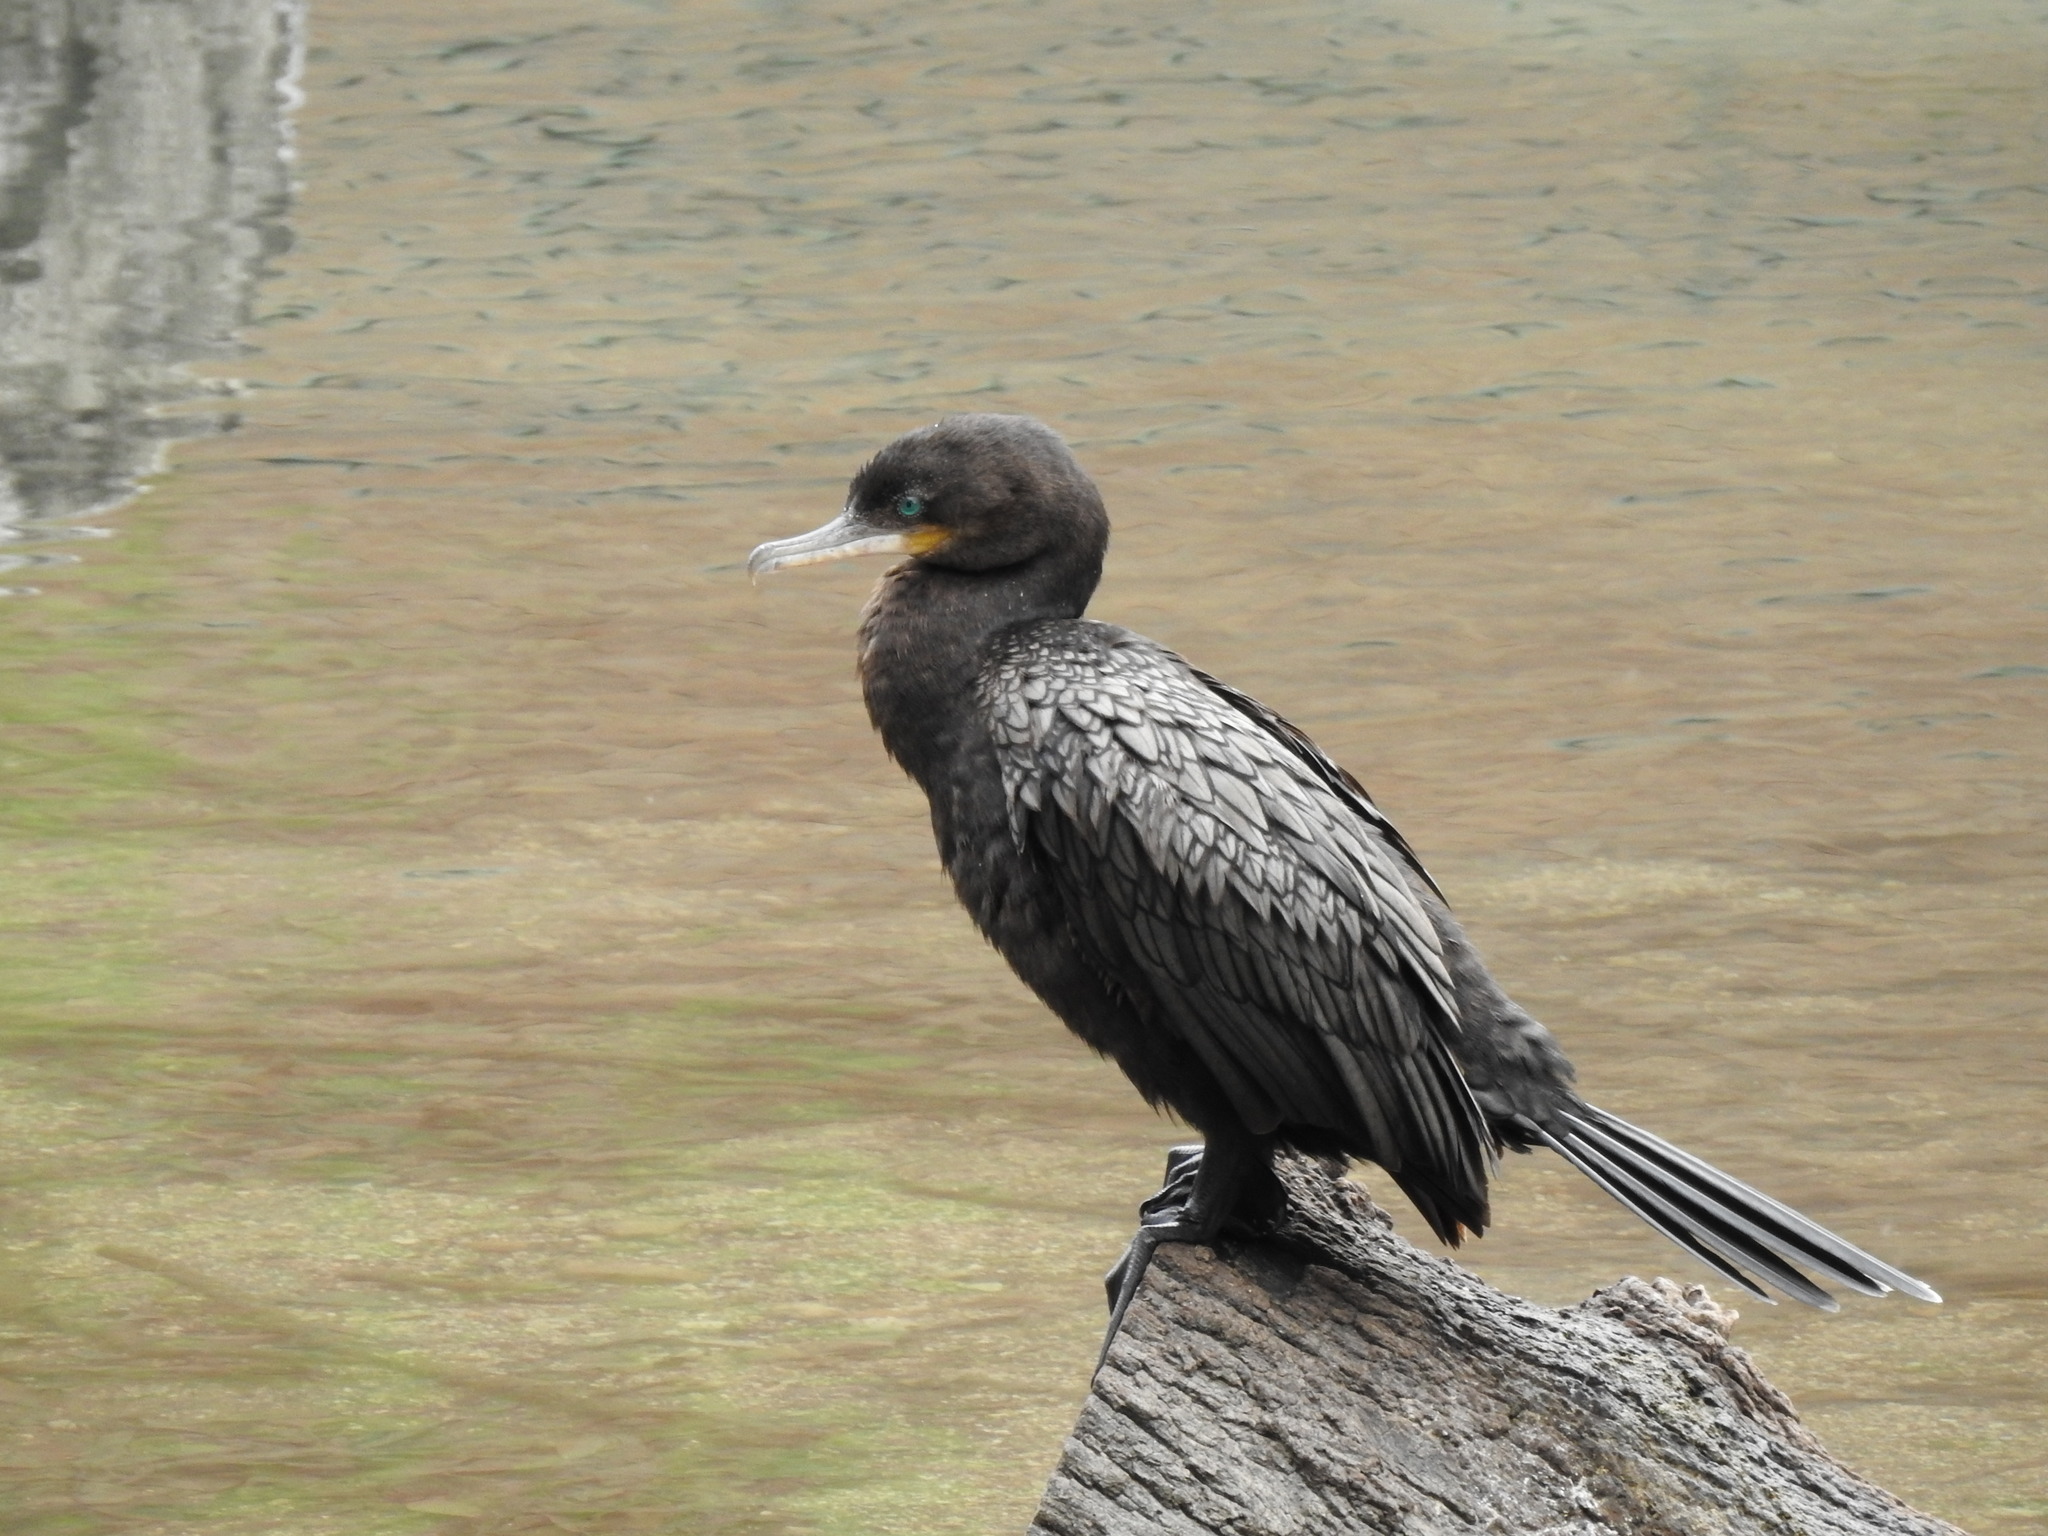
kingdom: Animalia
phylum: Chordata
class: Aves
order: Suliformes
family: Phalacrocoracidae
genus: Phalacrocorax
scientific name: Phalacrocorax brasilianus
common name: Neotropic cormorant
